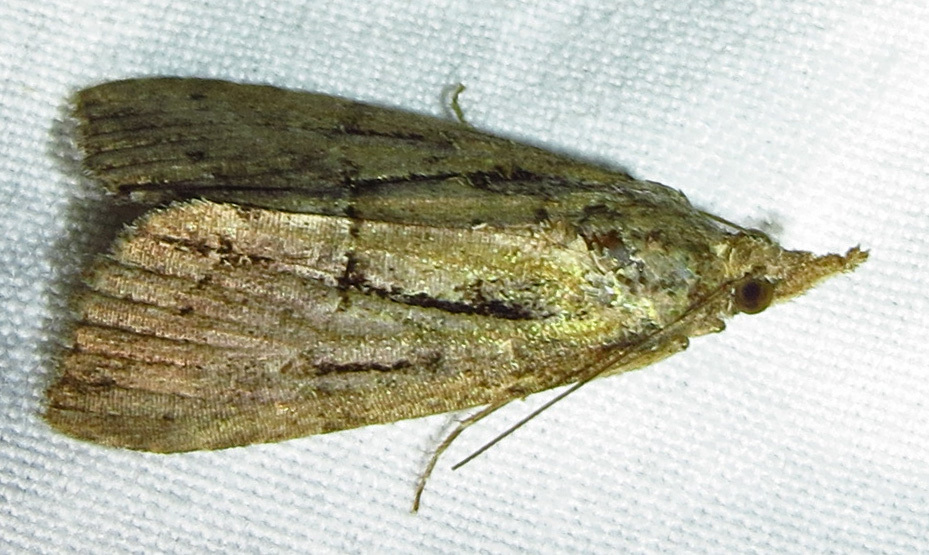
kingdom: Animalia
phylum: Arthropoda
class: Insecta
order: Lepidoptera
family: Erebidae
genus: Hypena
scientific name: Hypena scabra
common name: Green cloverworm
